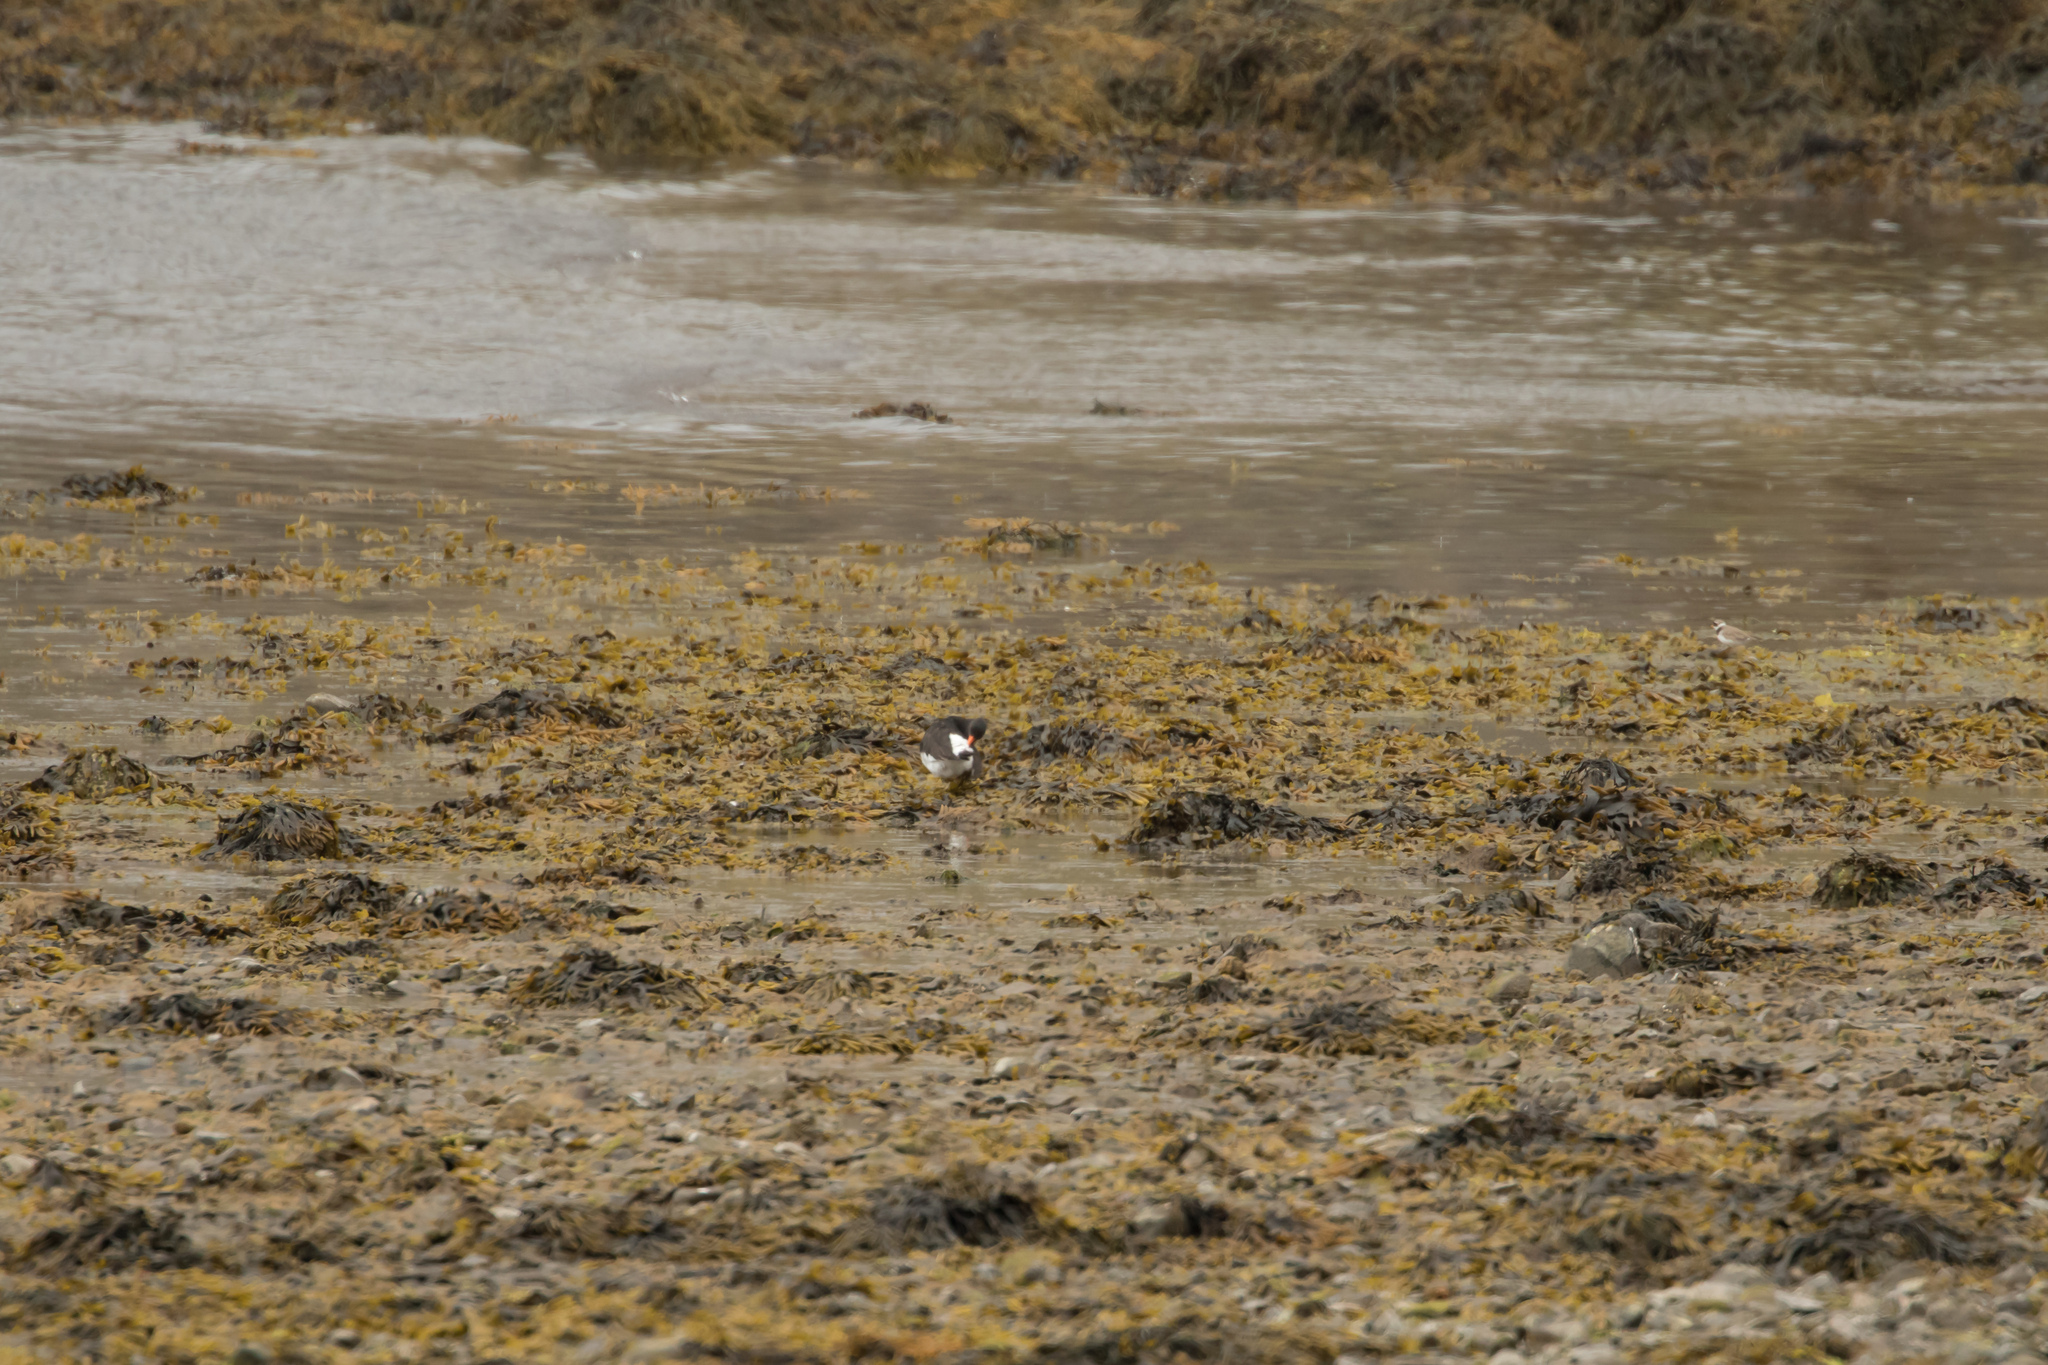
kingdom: Animalia
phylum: Chordata
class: Aves
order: Charadriiformes
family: Charadriidae
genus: Charadrius
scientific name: Charadrius hiaticula
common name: Common ringed plover
